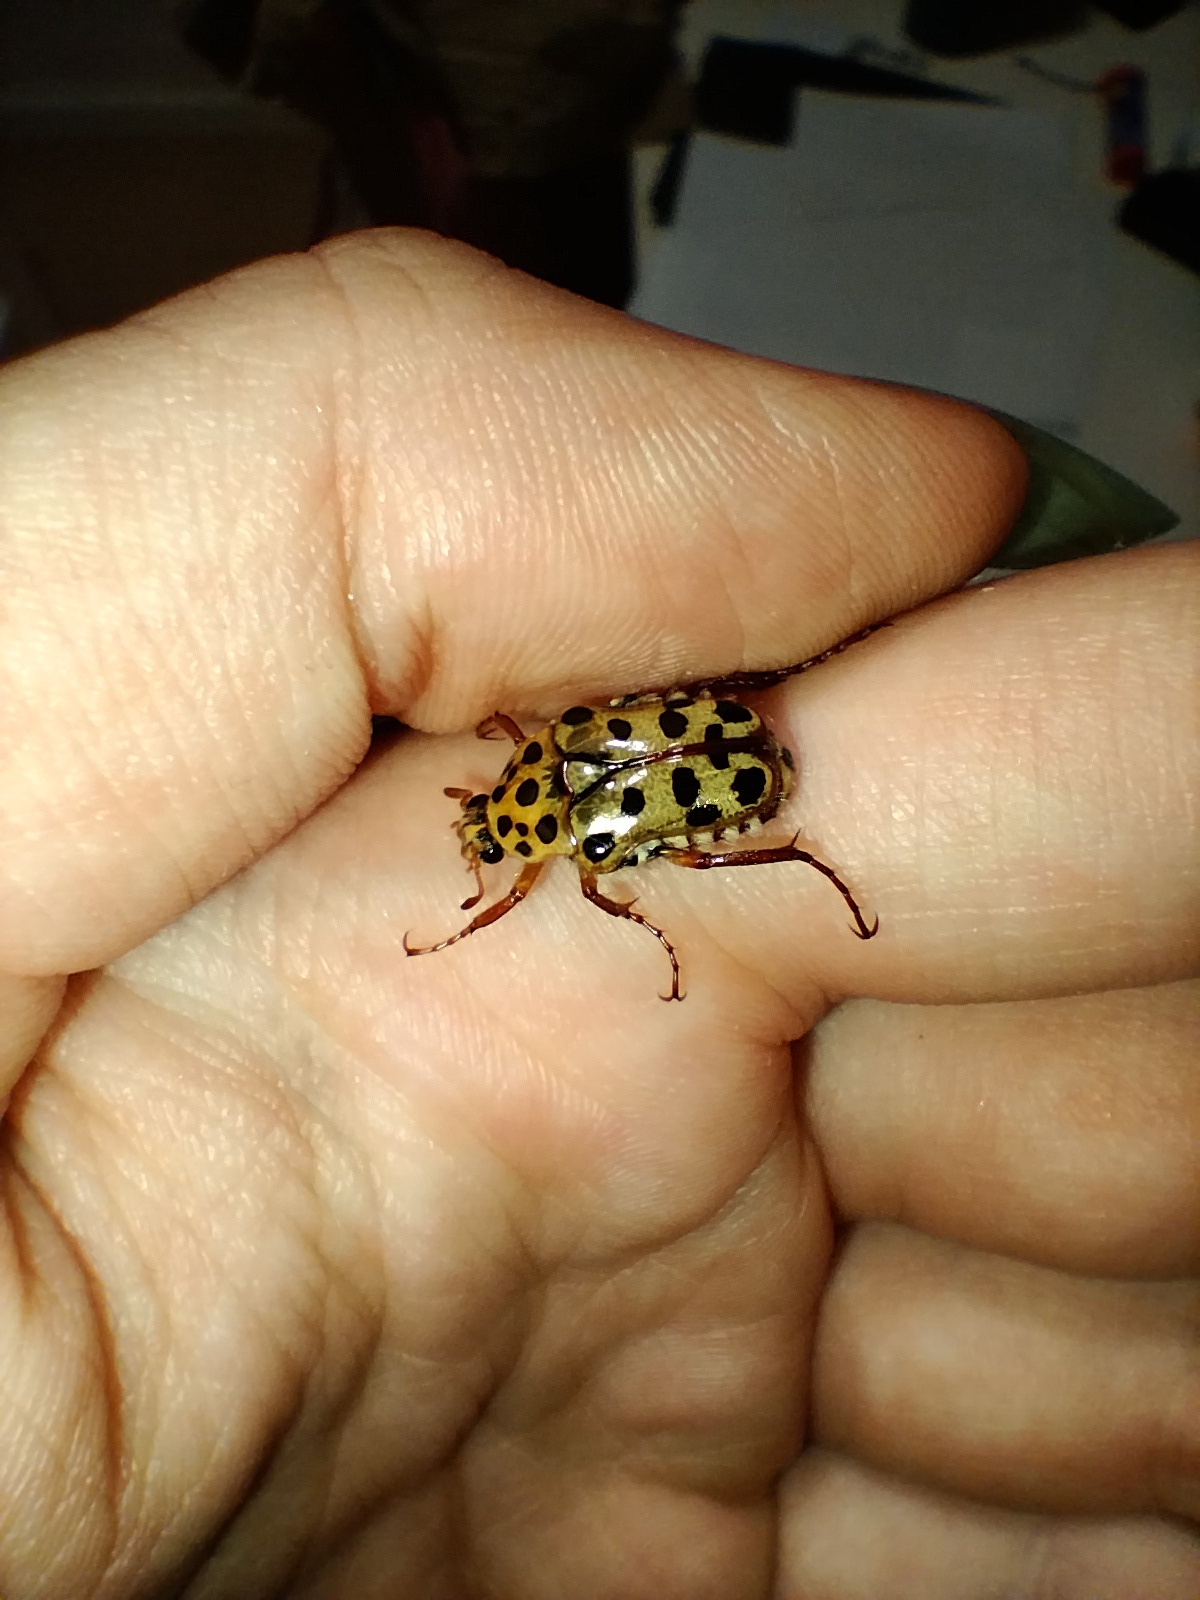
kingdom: Animalia
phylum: Arthropoda
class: Insecta
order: Coleoptera
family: Scarabaeidae
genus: Neorrhina
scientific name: Neorrhina punctatum
